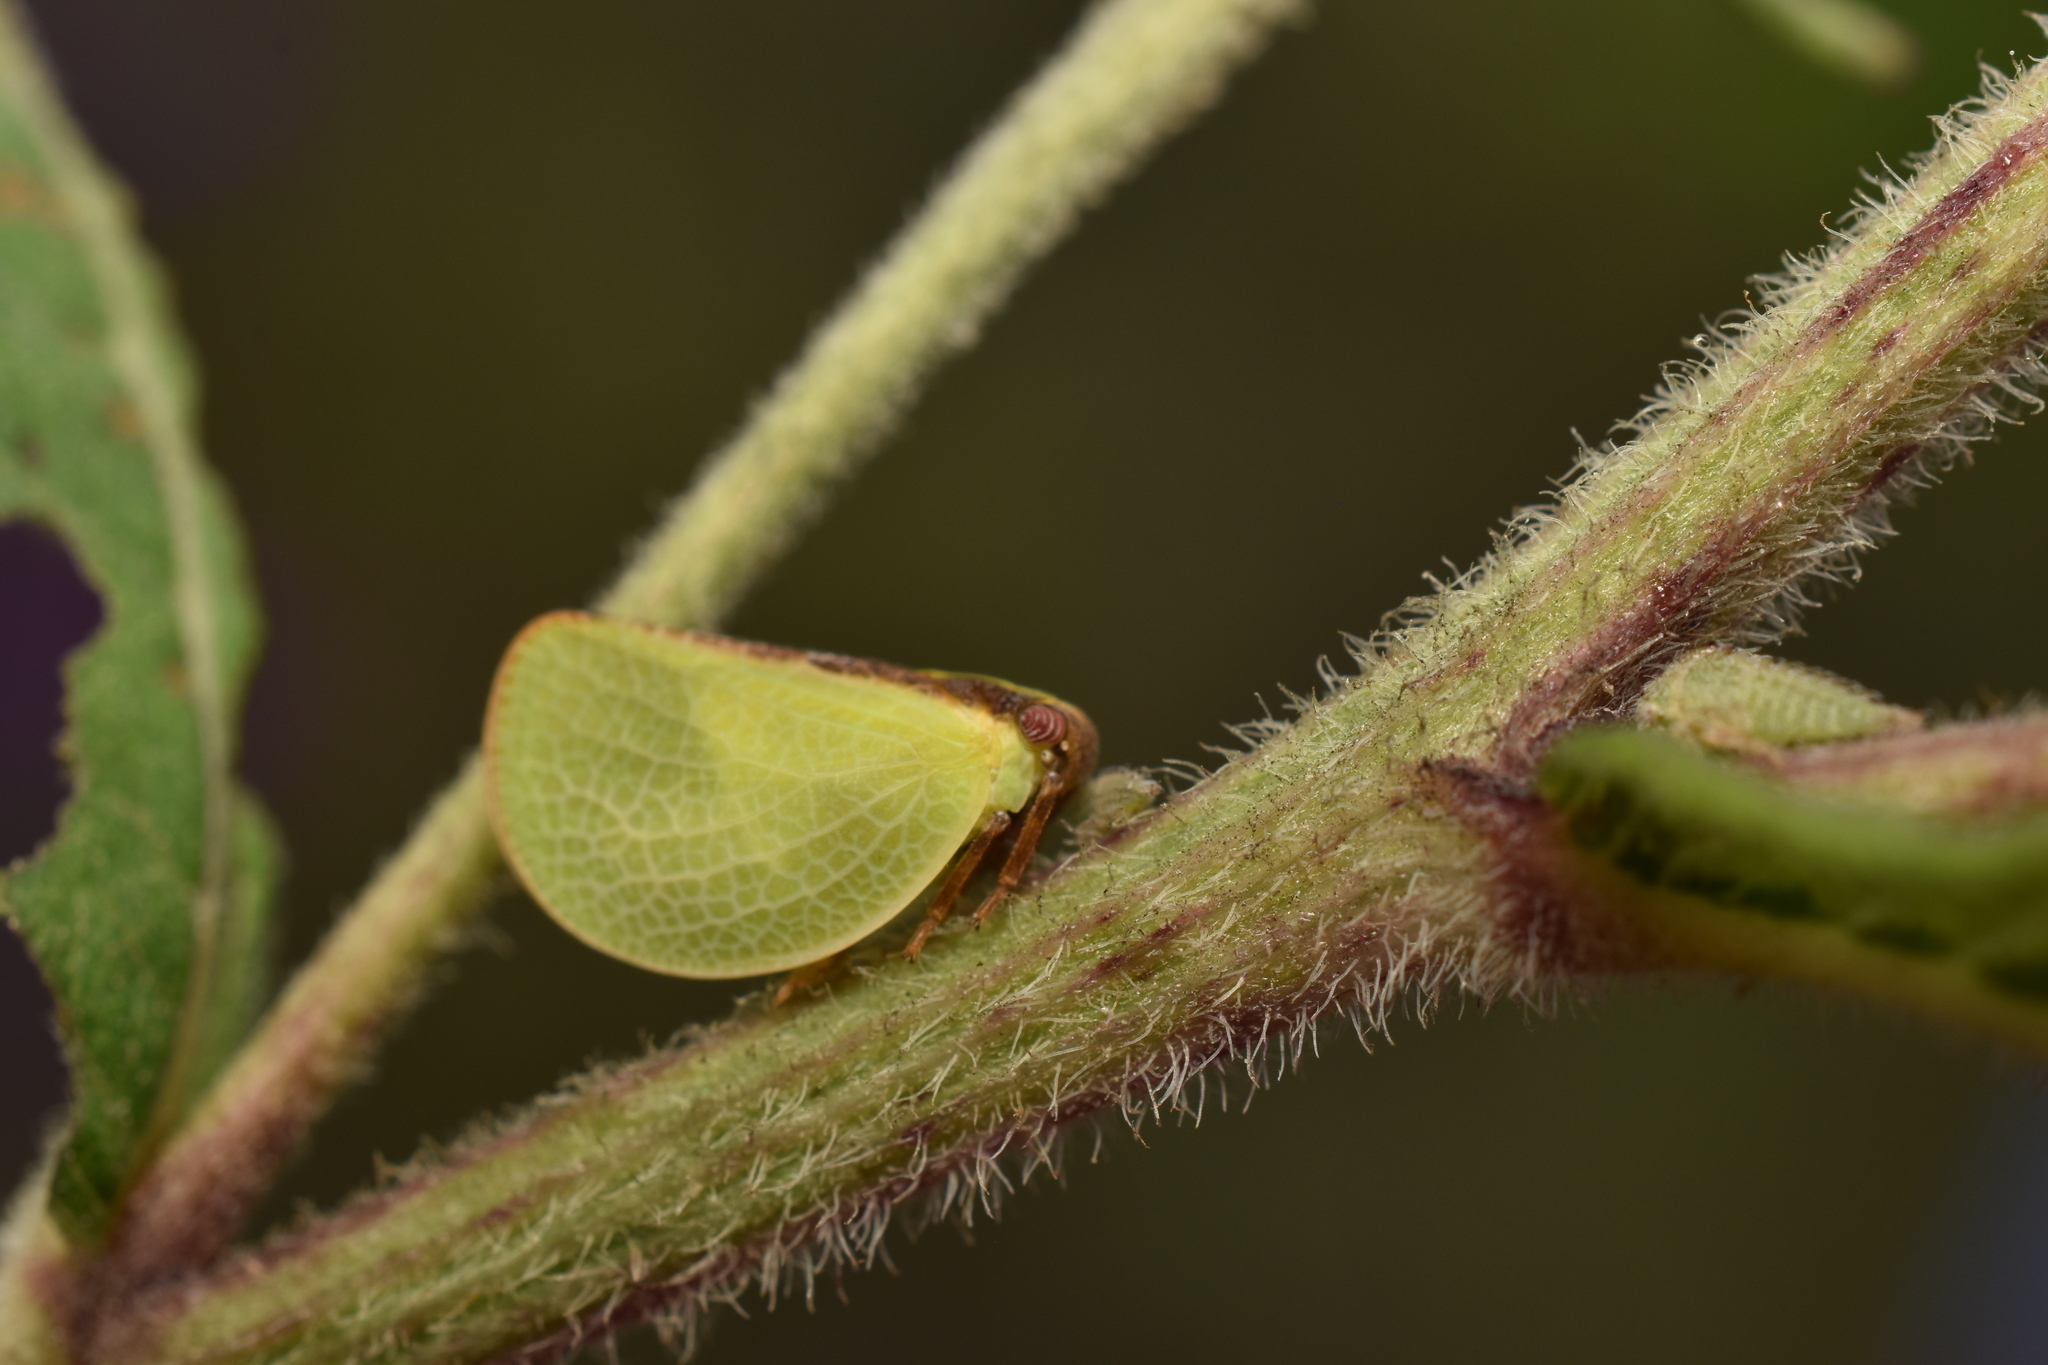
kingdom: Animalia
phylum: Arthropoda
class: Insecta
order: Hemiptera
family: Acanaloniidae
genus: Acanalonia
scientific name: Acanalonia bivittata
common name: Two-striped planthopper
